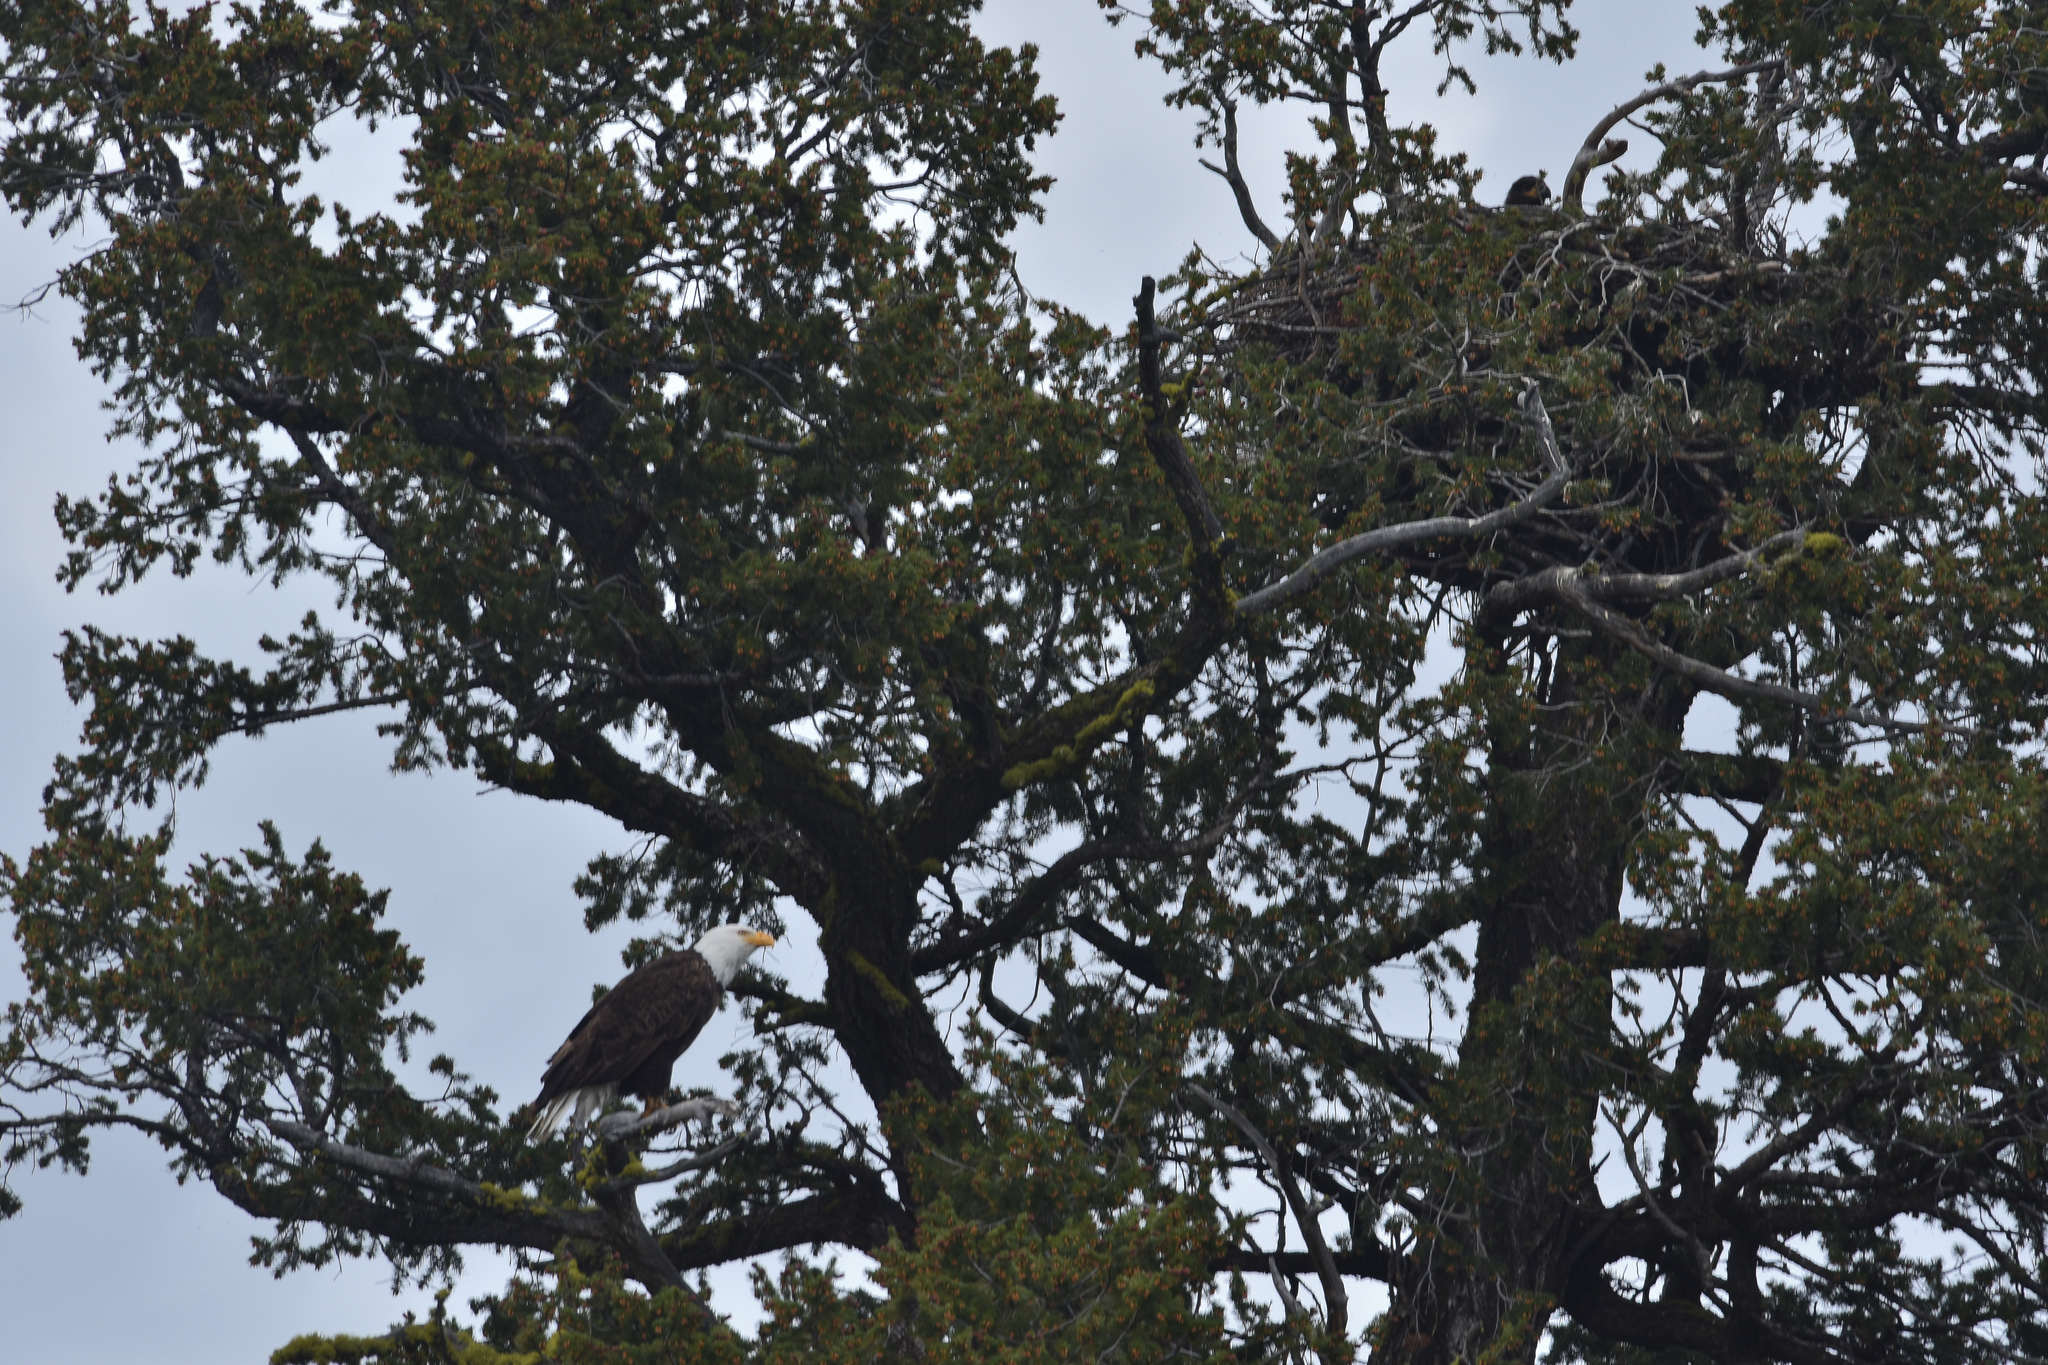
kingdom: Animalia
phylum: Chordata
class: Aves
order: Accipitriformes
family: Accipitridae
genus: Haliaeetus
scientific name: Haliaeetus leucocephalus
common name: Bald eagle
